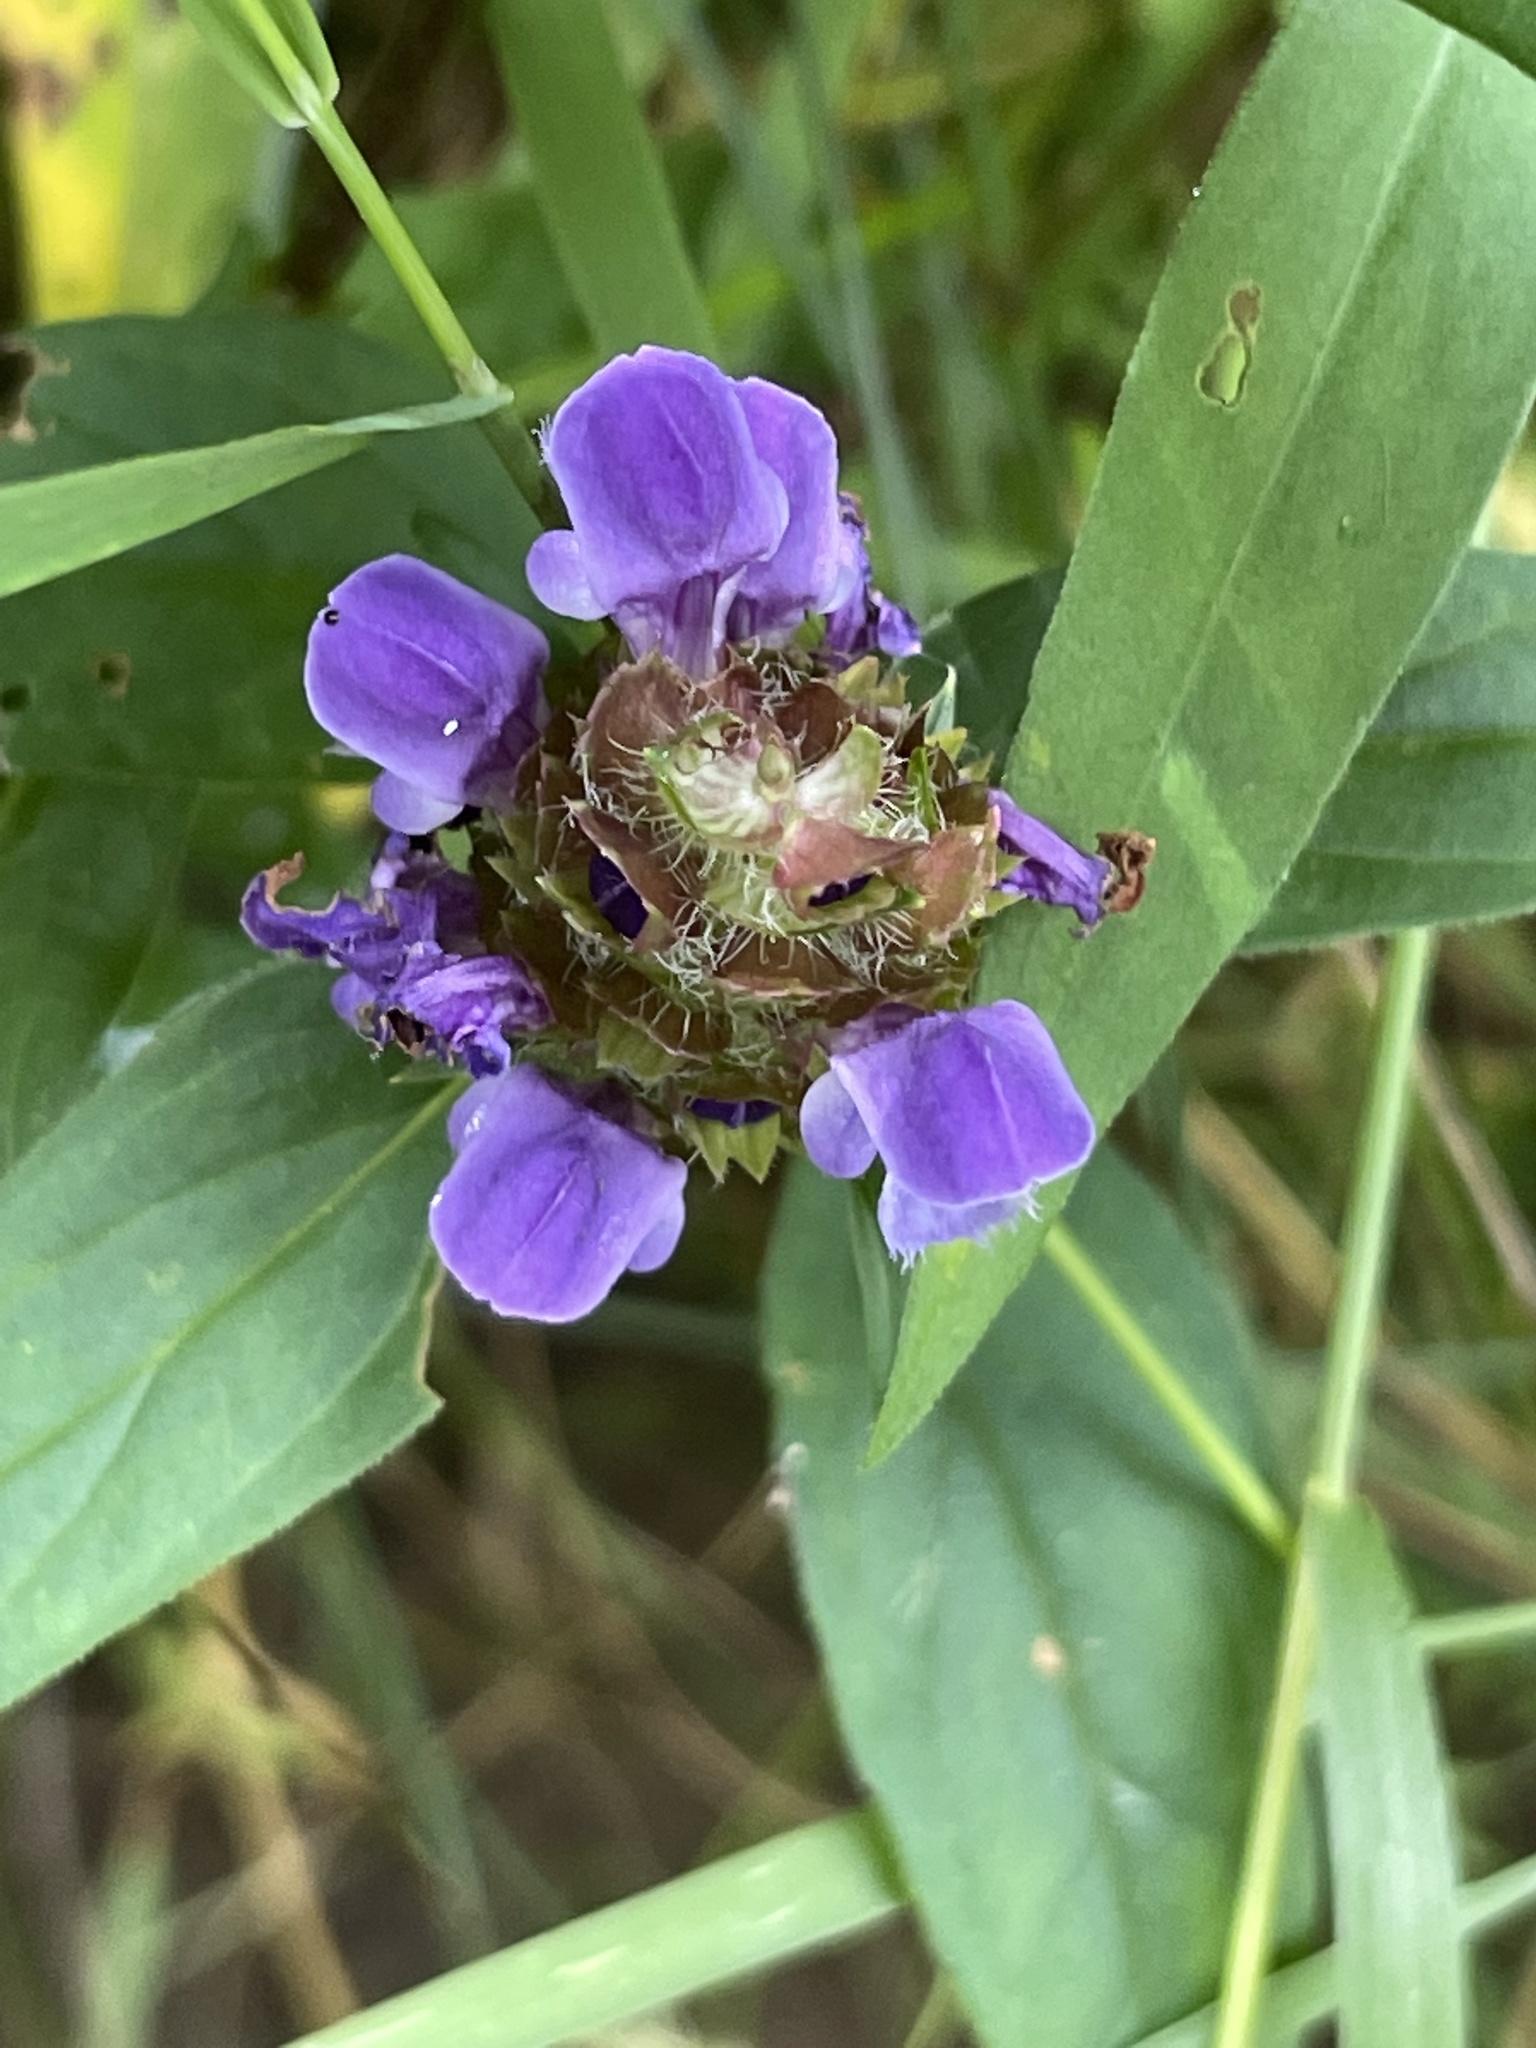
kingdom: Plantae
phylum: Tracheophyta
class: Magnoliopsida
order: Lamiales
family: Lamiaceae
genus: Prunella
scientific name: Prunella vulgaris
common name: Heal-all
